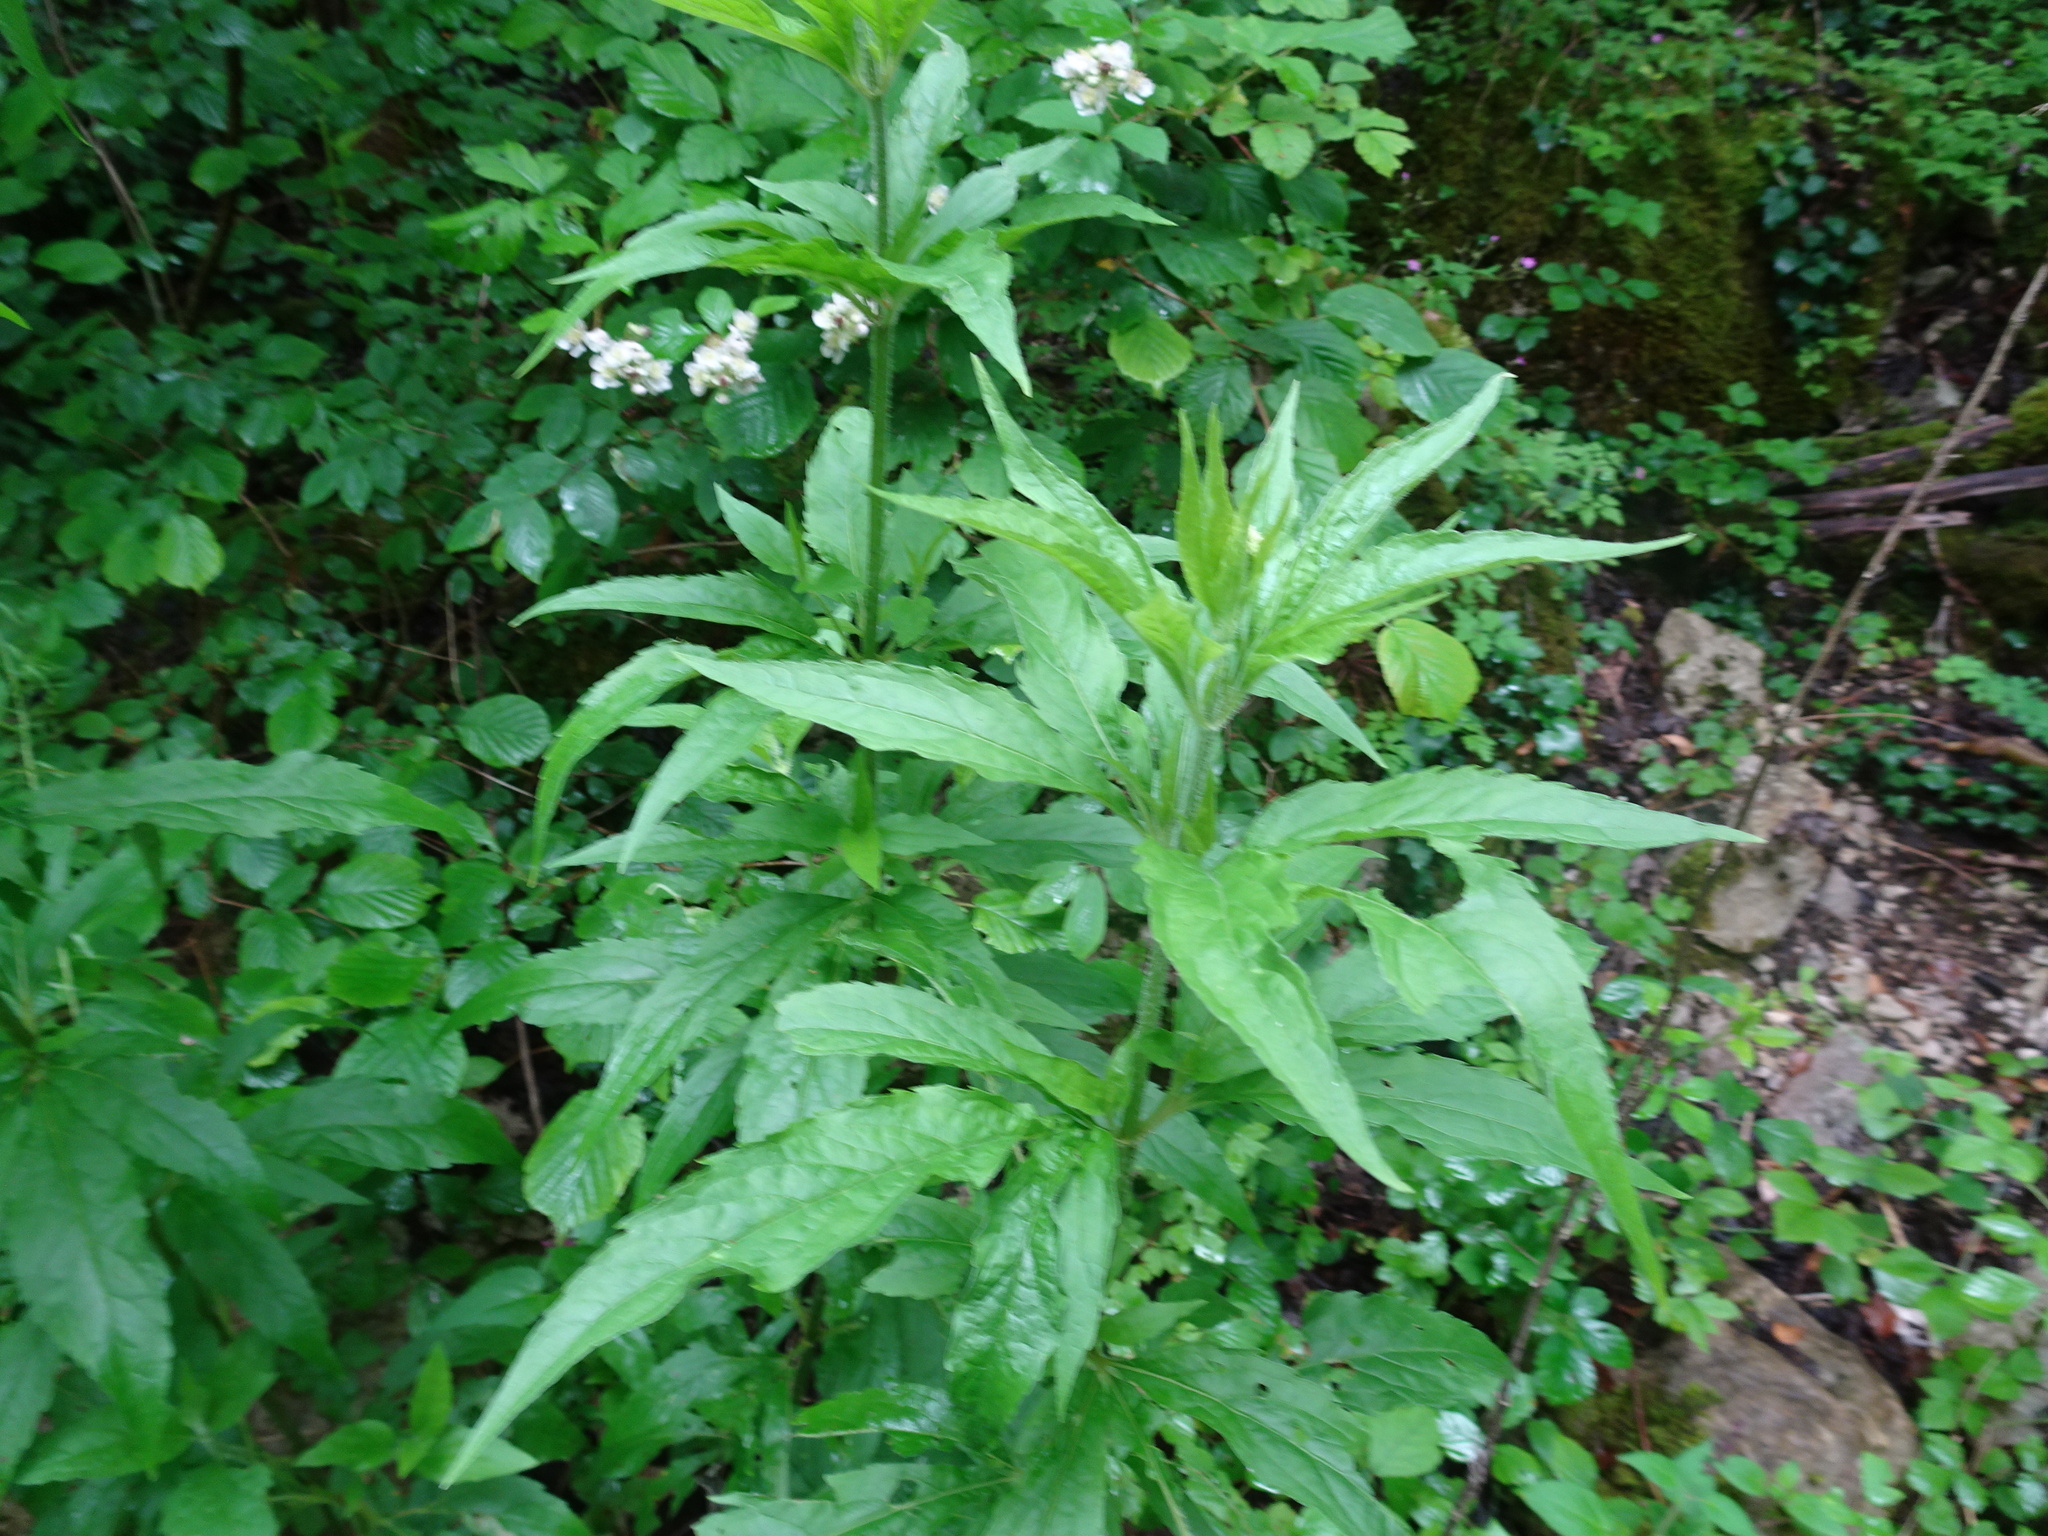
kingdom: Plantae
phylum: Tracheophyta
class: Magnoliopsida
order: Asterales
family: Asteraceae
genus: Eupatorium
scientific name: Eupatorium cannabinum
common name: Hemp-agrimony
